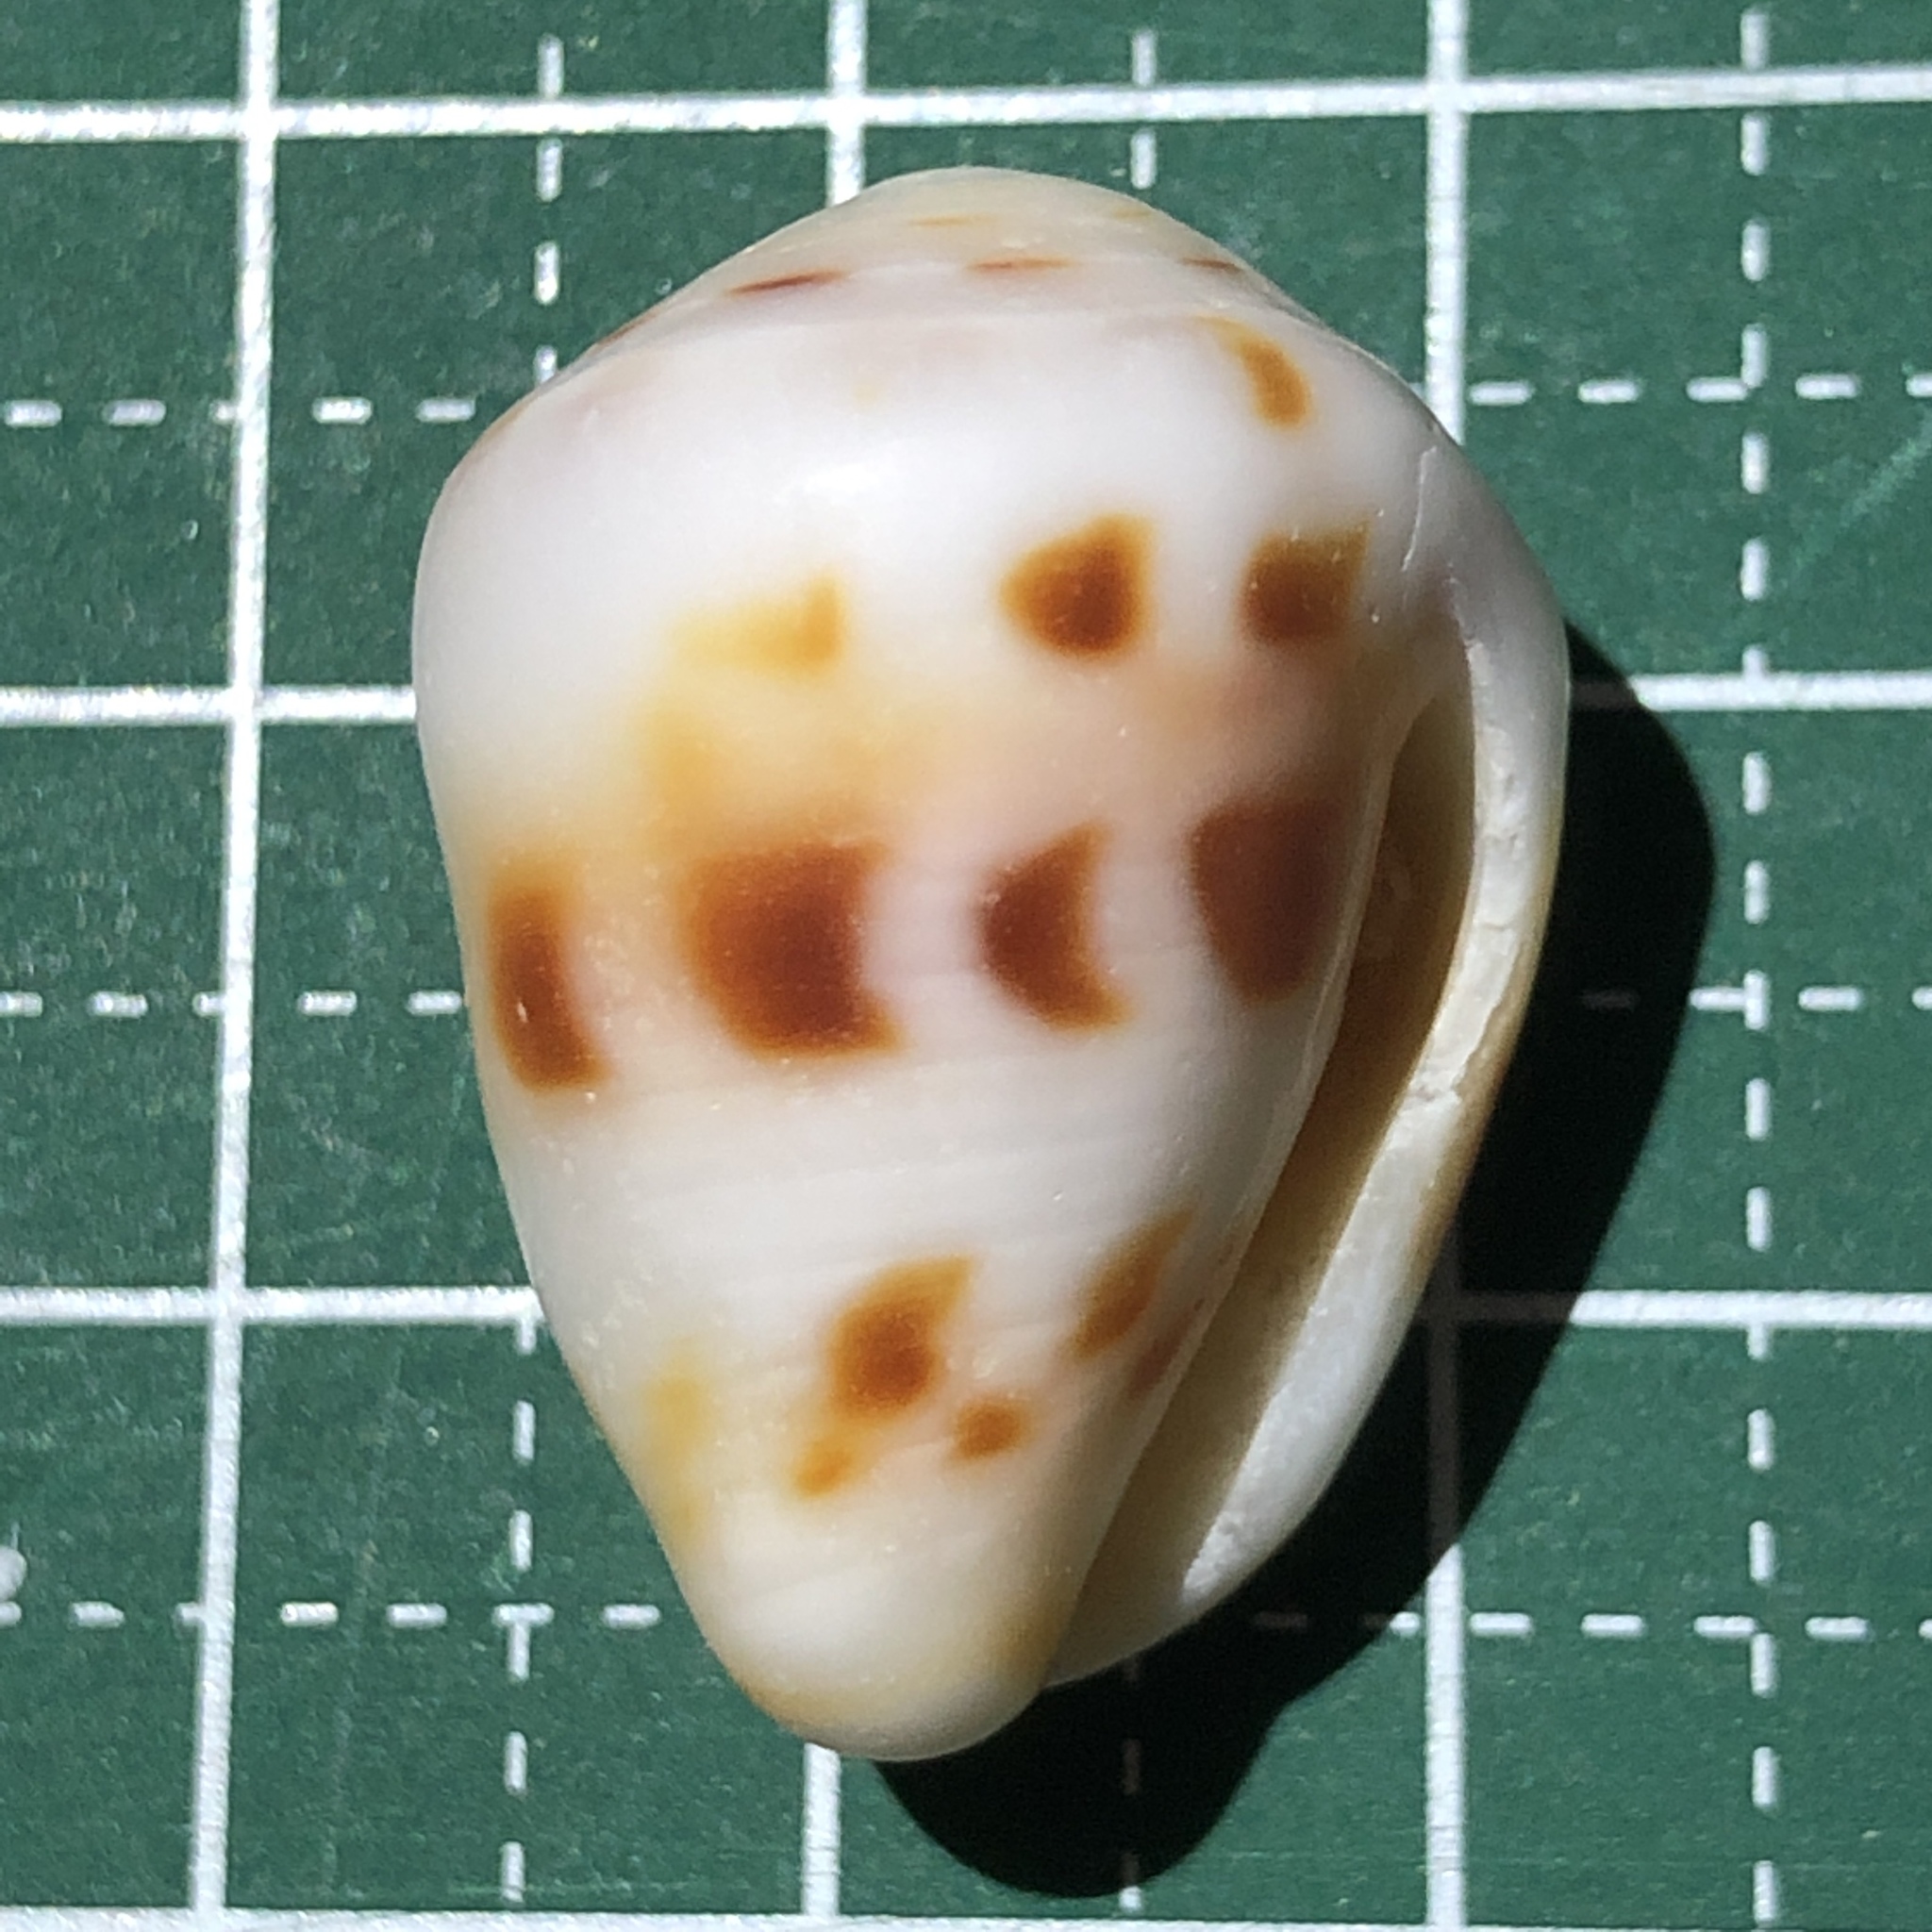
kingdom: Animalia
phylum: Mollusca
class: Gastropoda
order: Neogastropoda
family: Conidae
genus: Conus
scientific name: Conus ebraeus
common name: Hebrew cone
